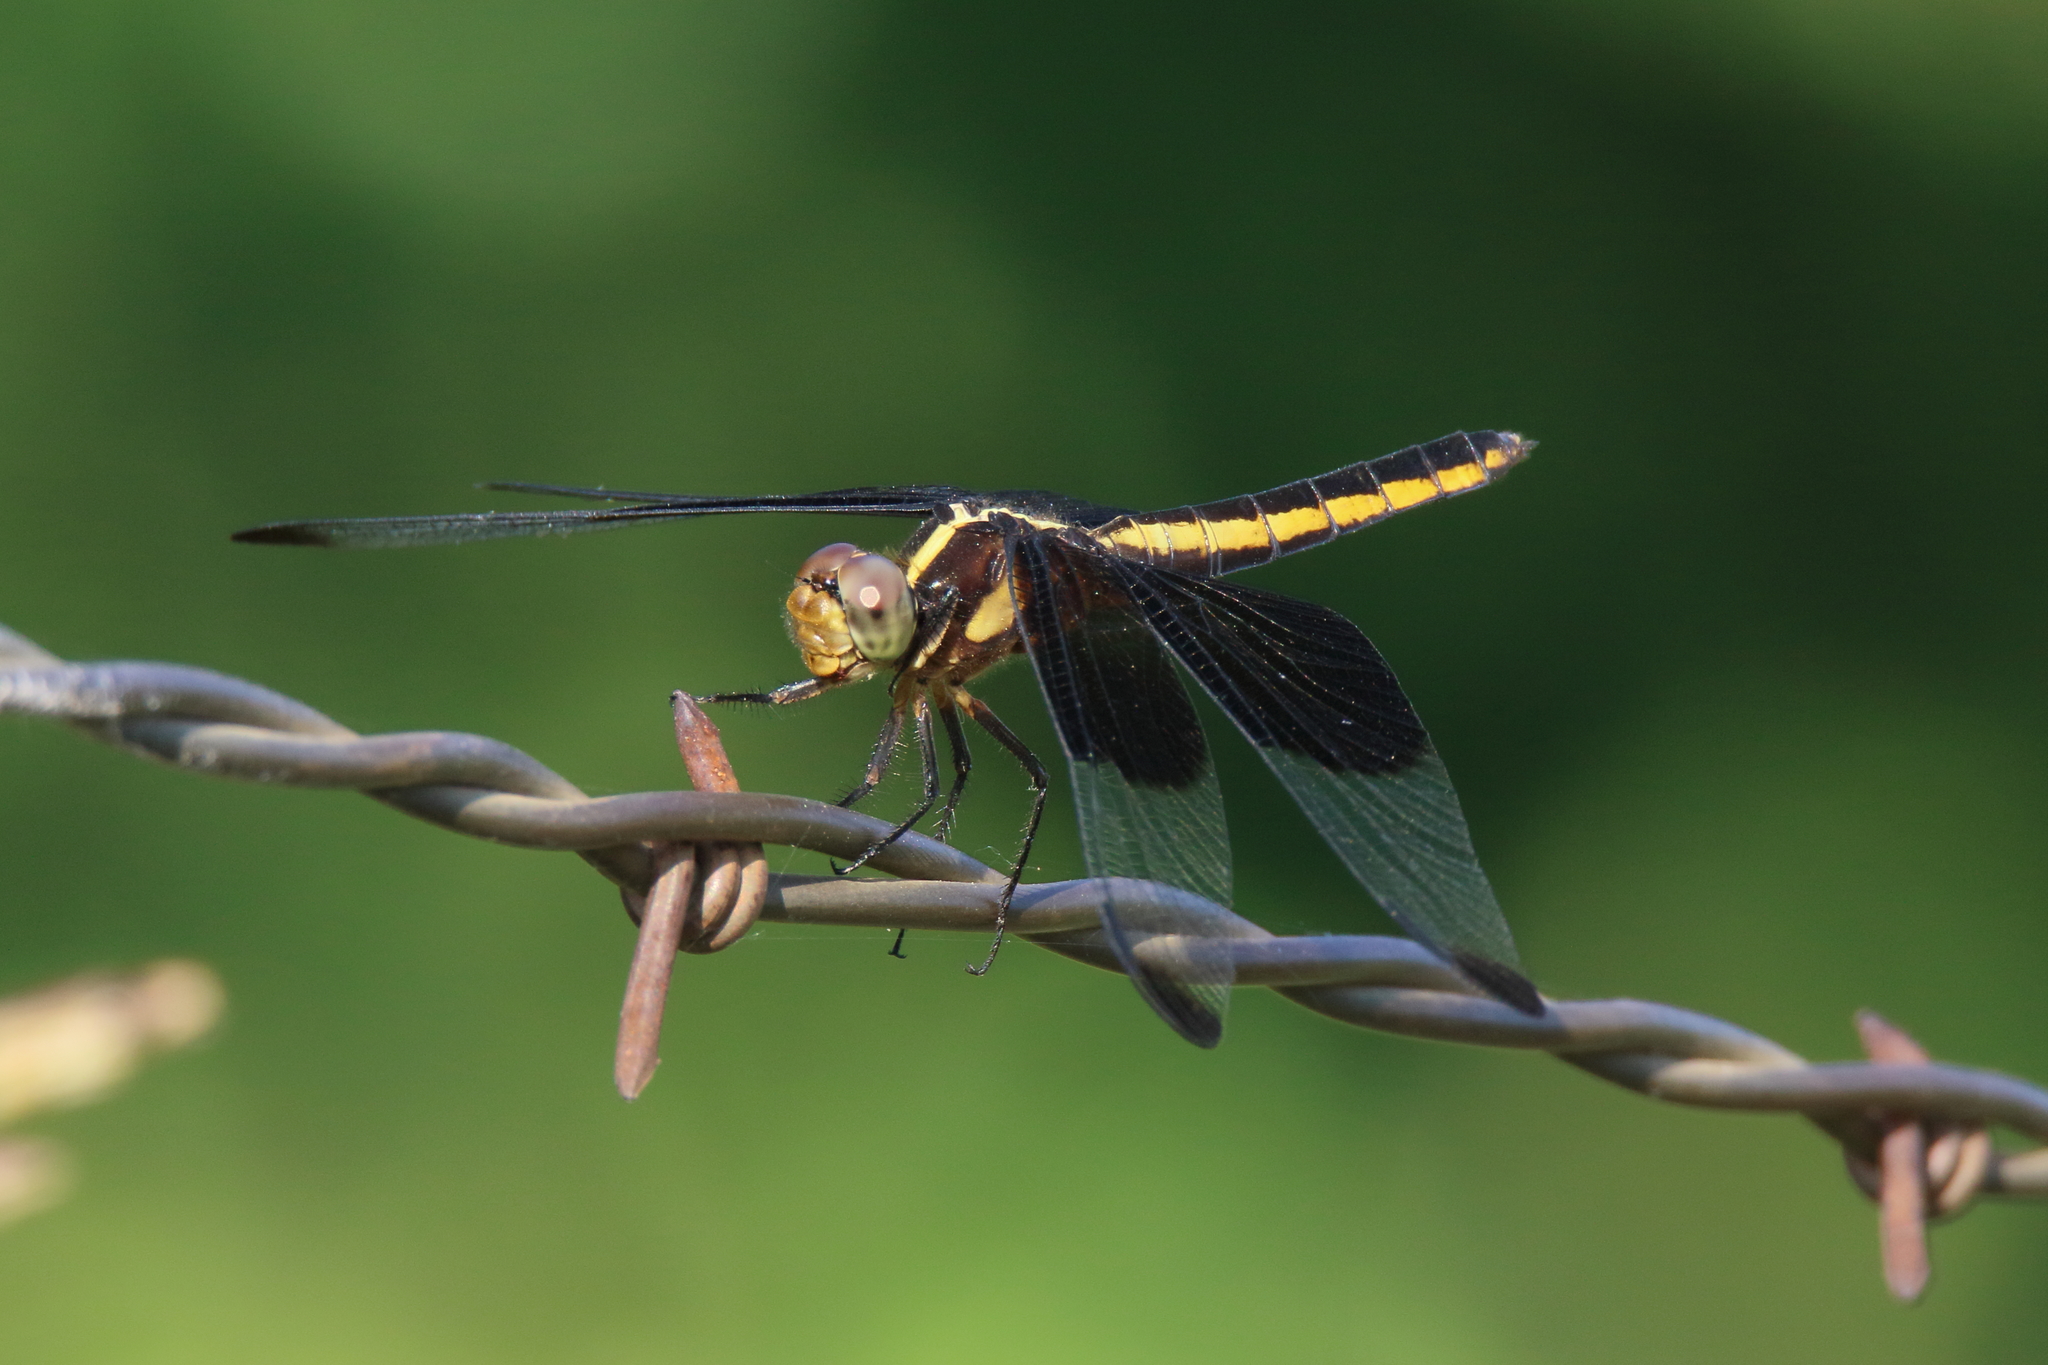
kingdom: Animalia
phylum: Arthropoda
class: Insecta
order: Odonata
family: Libellulidae
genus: Libellula
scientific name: Libellula luctuosa
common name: Widow skimmer
